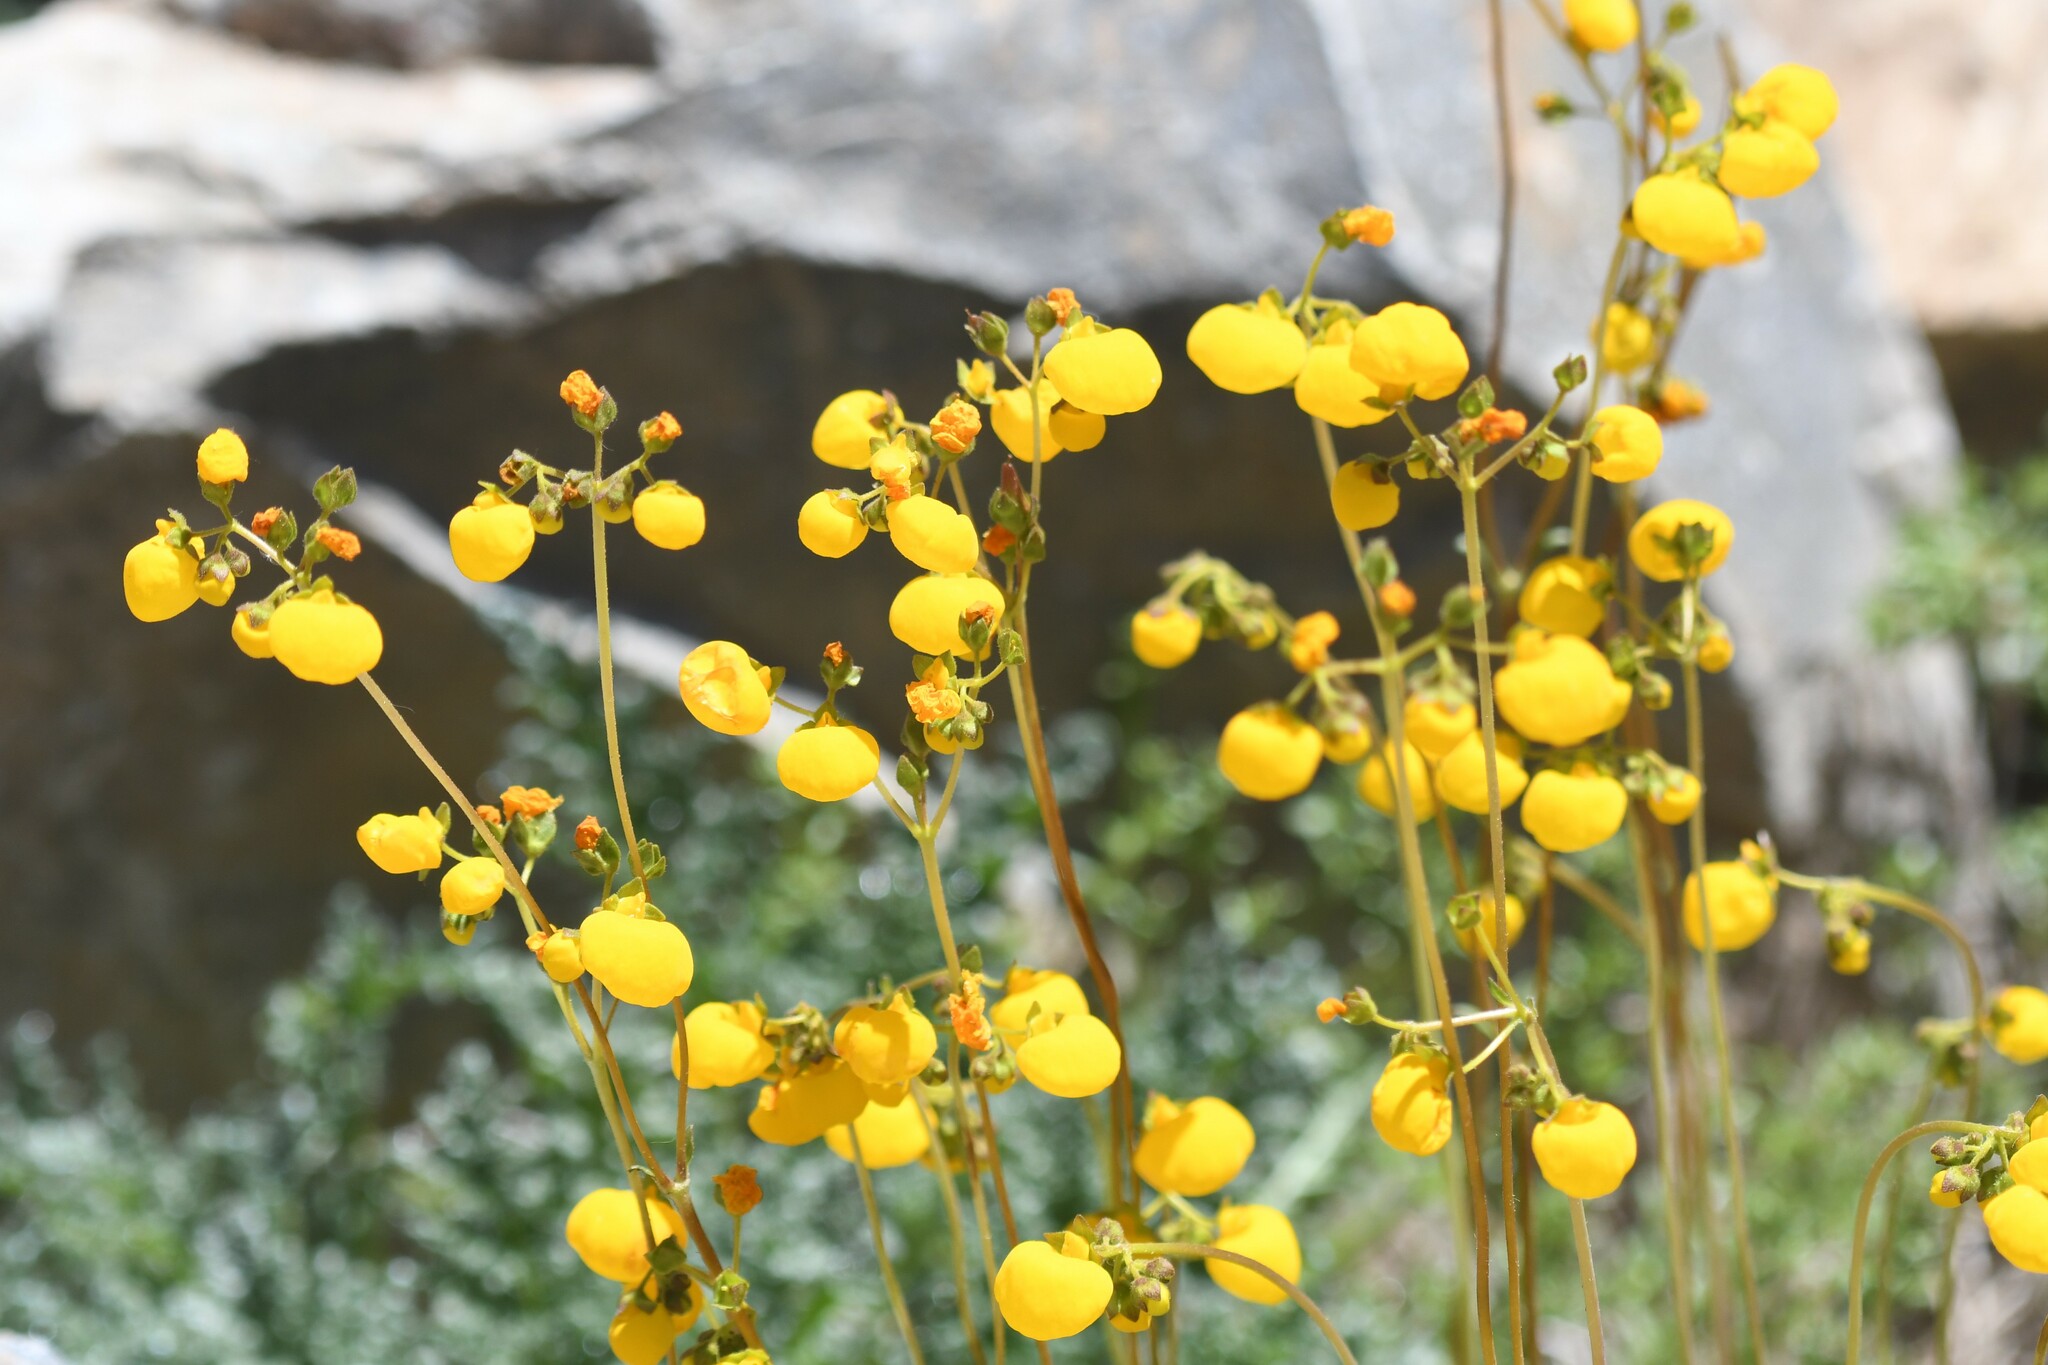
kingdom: Plantae
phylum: Tracheophyta
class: Magnoliopsida
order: Lamiales
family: Calceolariaceae
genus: Calceolaria
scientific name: Calceolaria filicaulis
